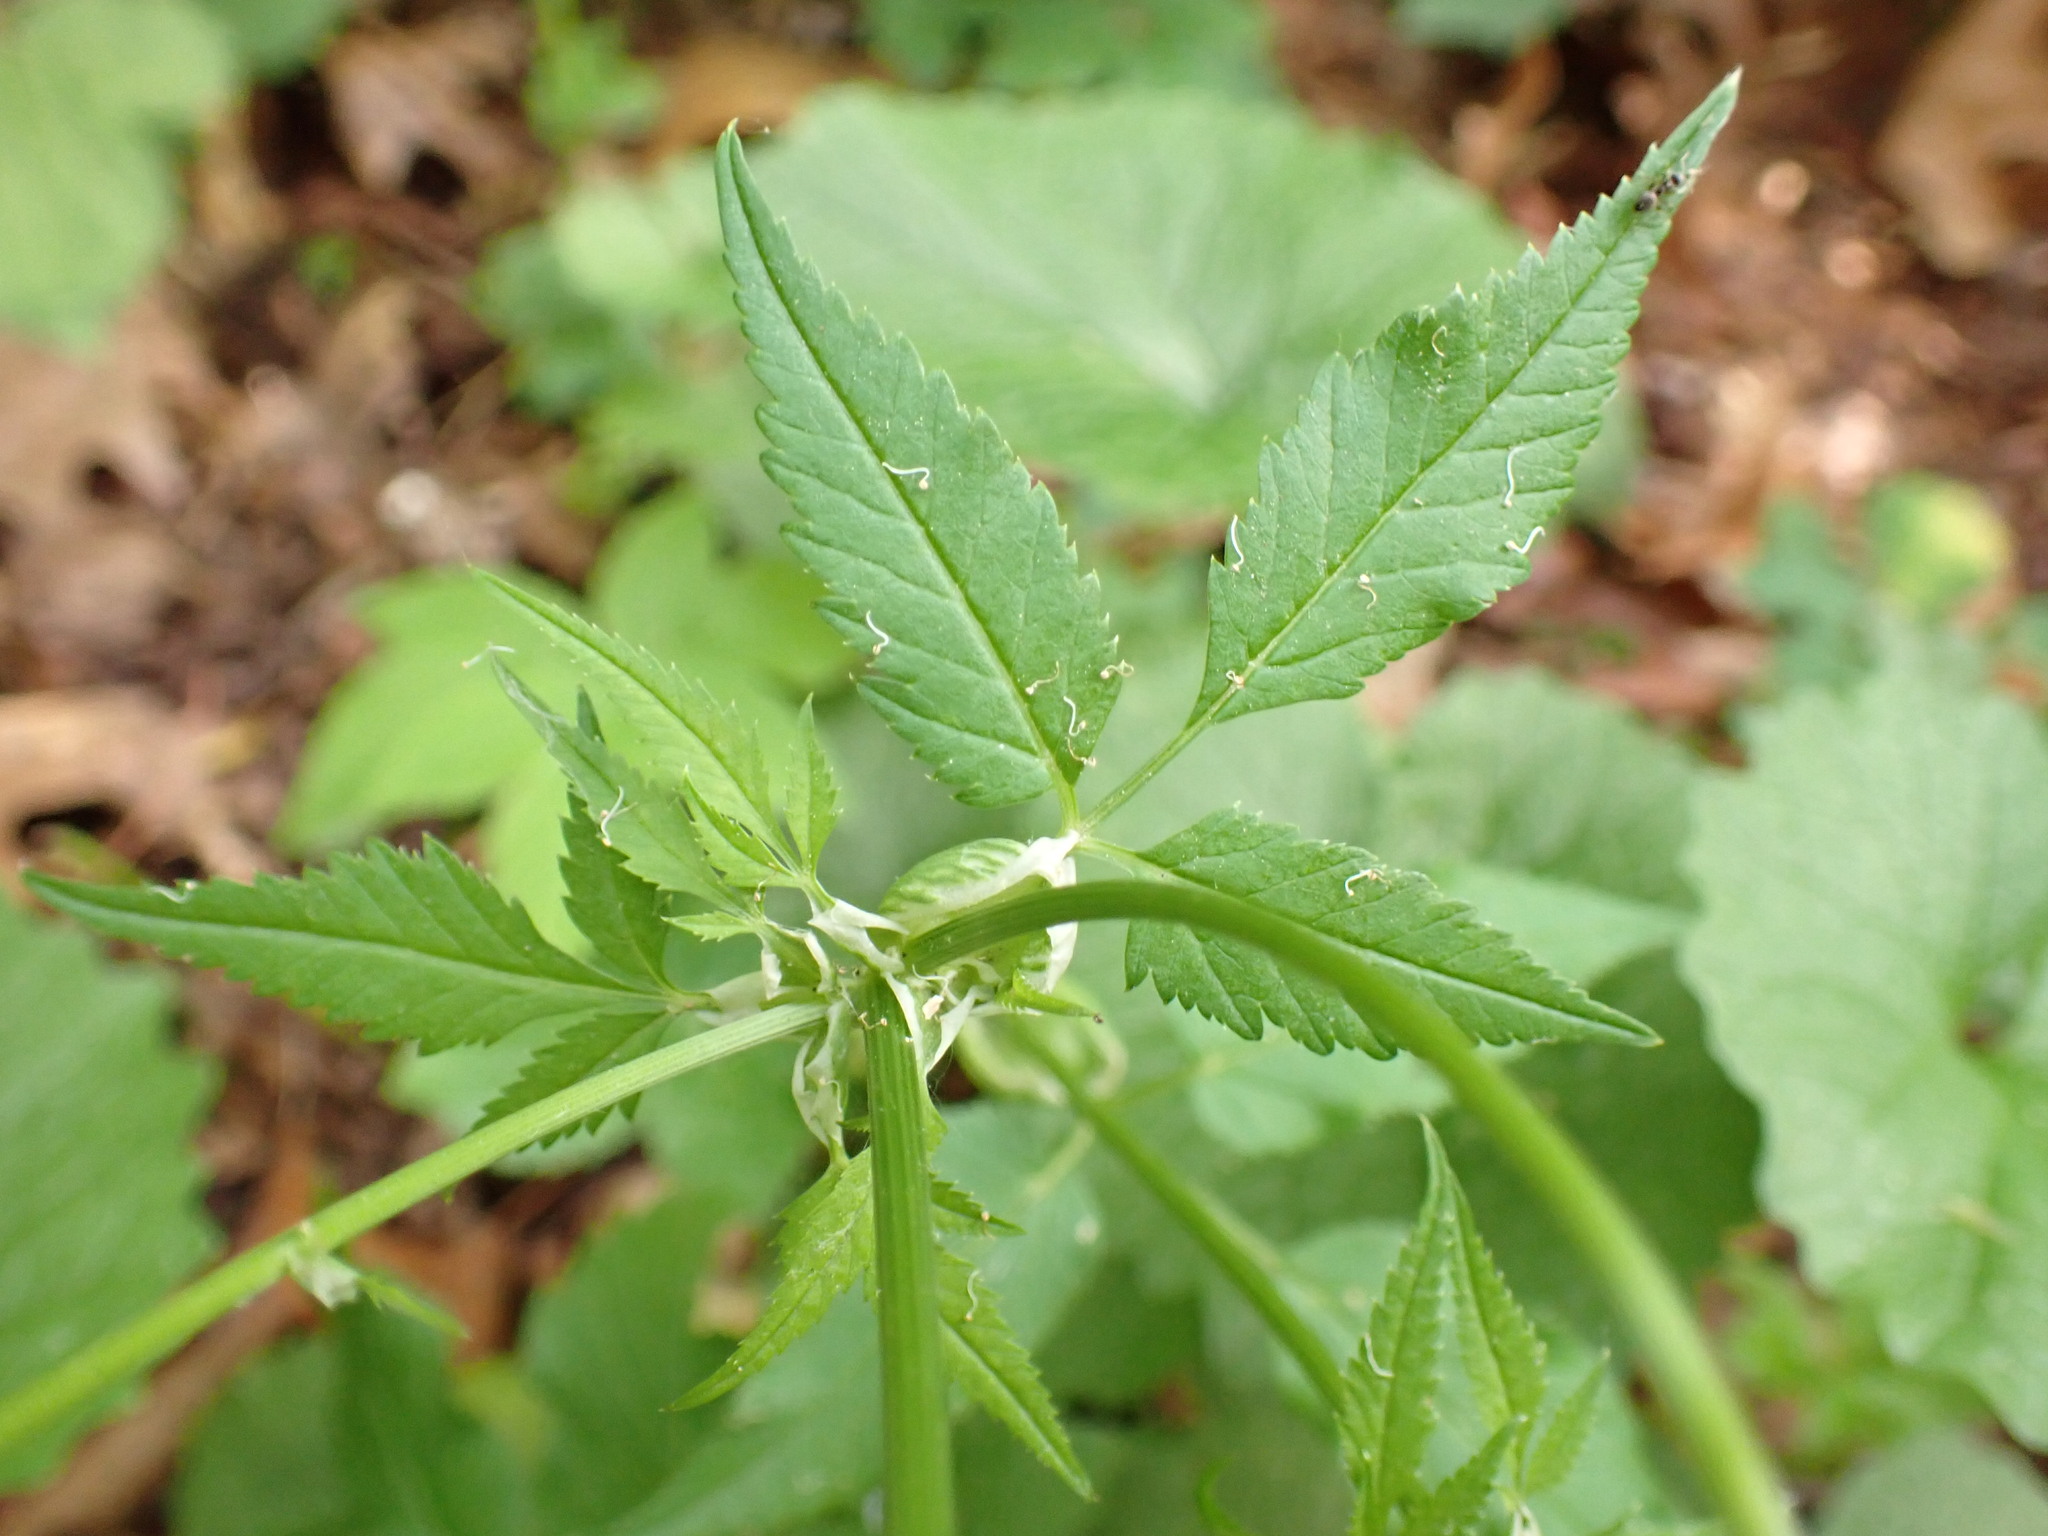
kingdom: Plantae
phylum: Tracheophyta
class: Magnoliopsida
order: Apiales
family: Apiaceae
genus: Aegopodium
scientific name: Aegopodium podagraria
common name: Ground-elder
